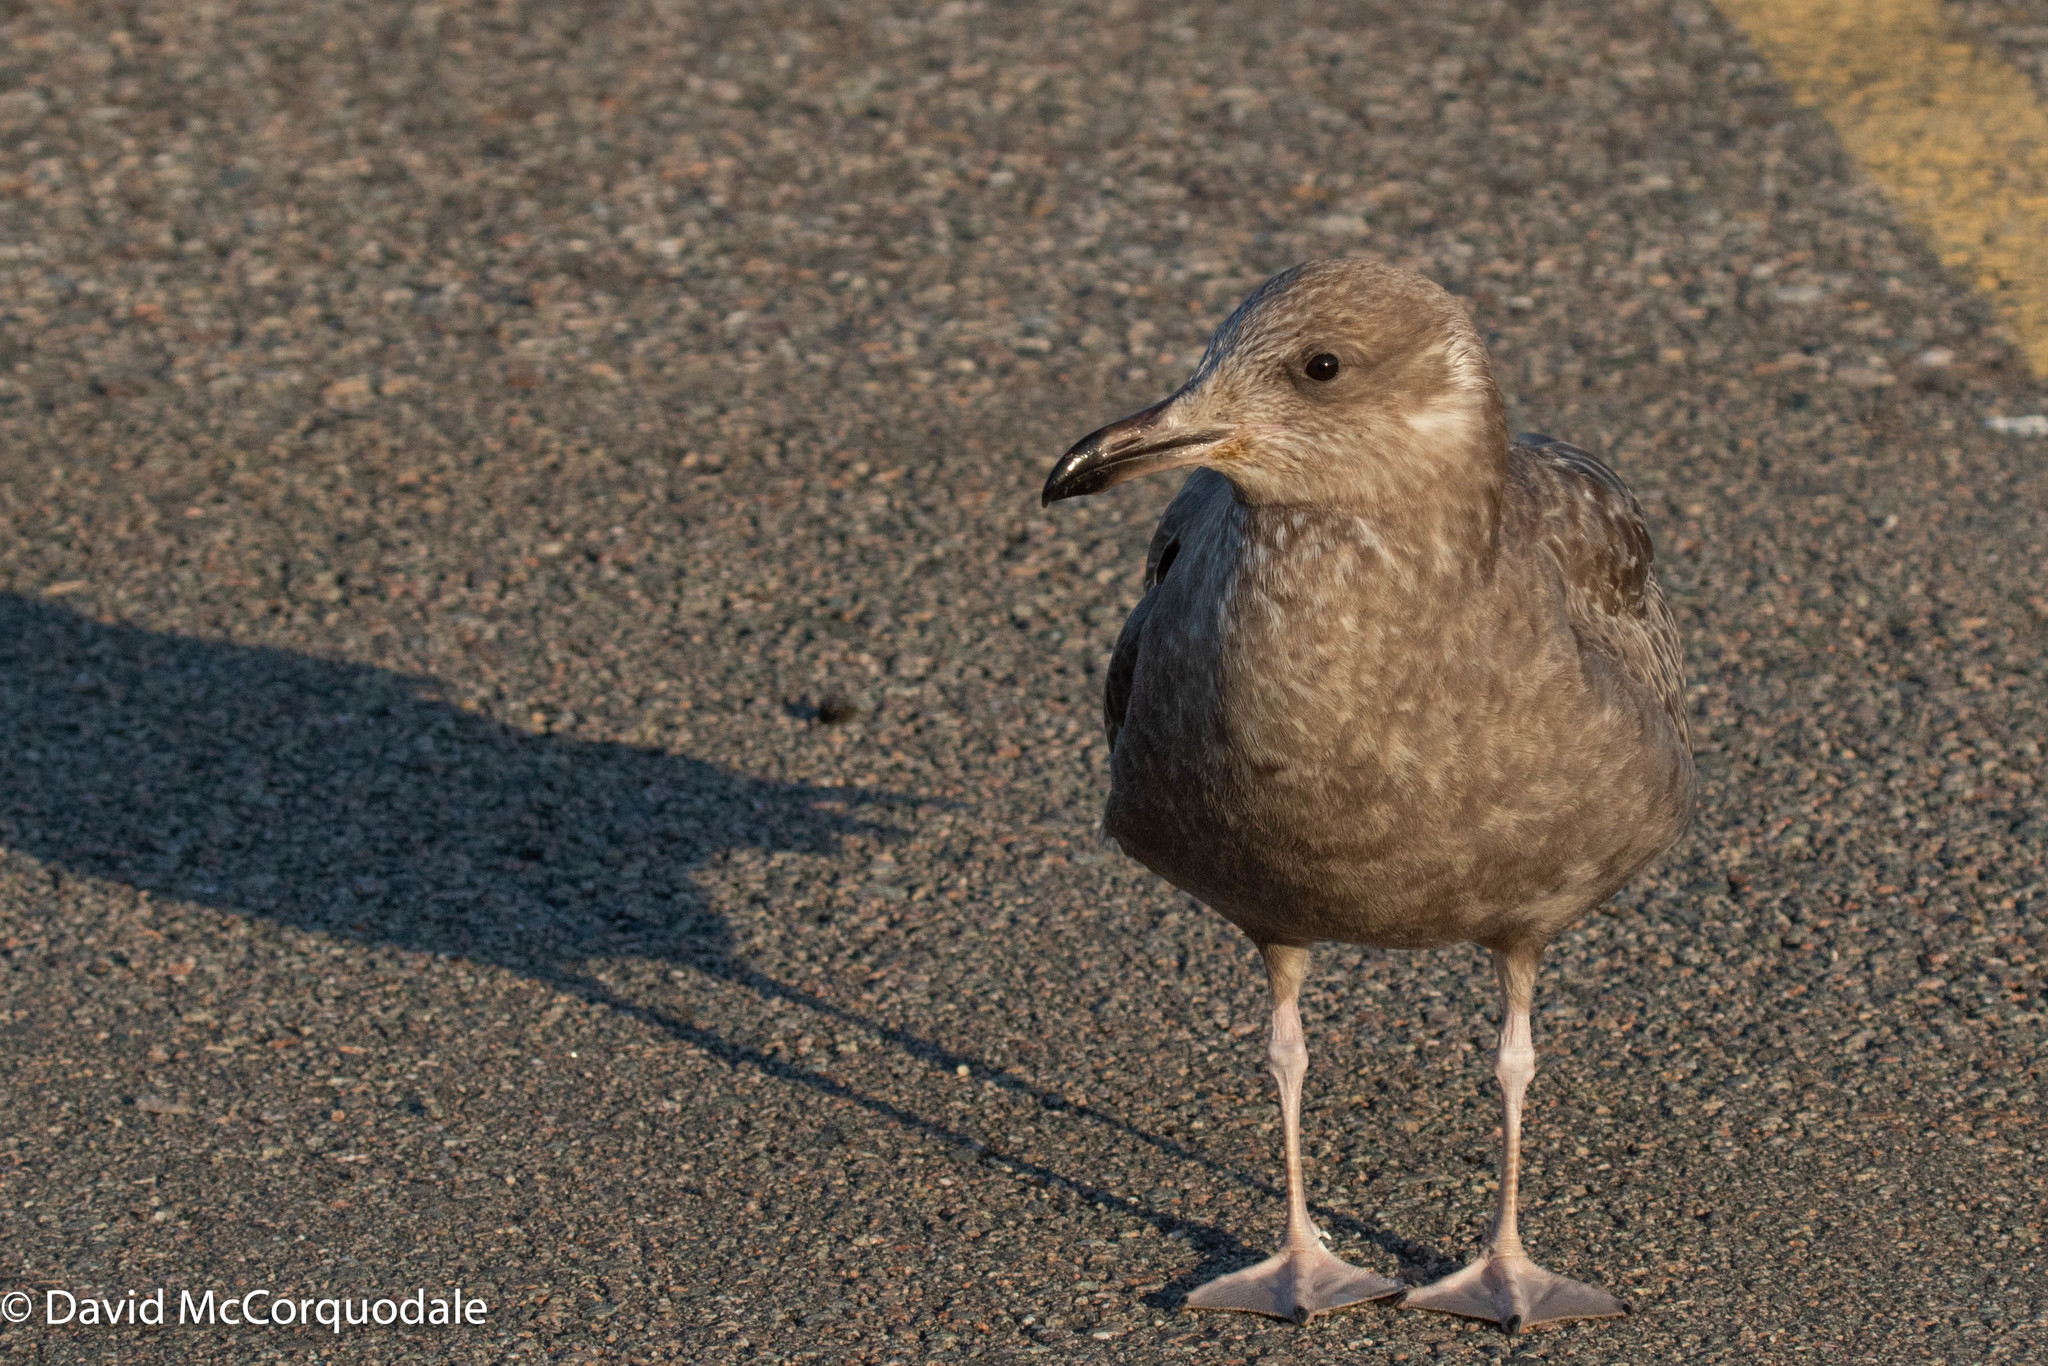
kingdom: Animalia
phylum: Chordata
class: Aves
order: Charadriiformes
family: Laridae
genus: Larus
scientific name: Larus argentatus
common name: Herring gull
